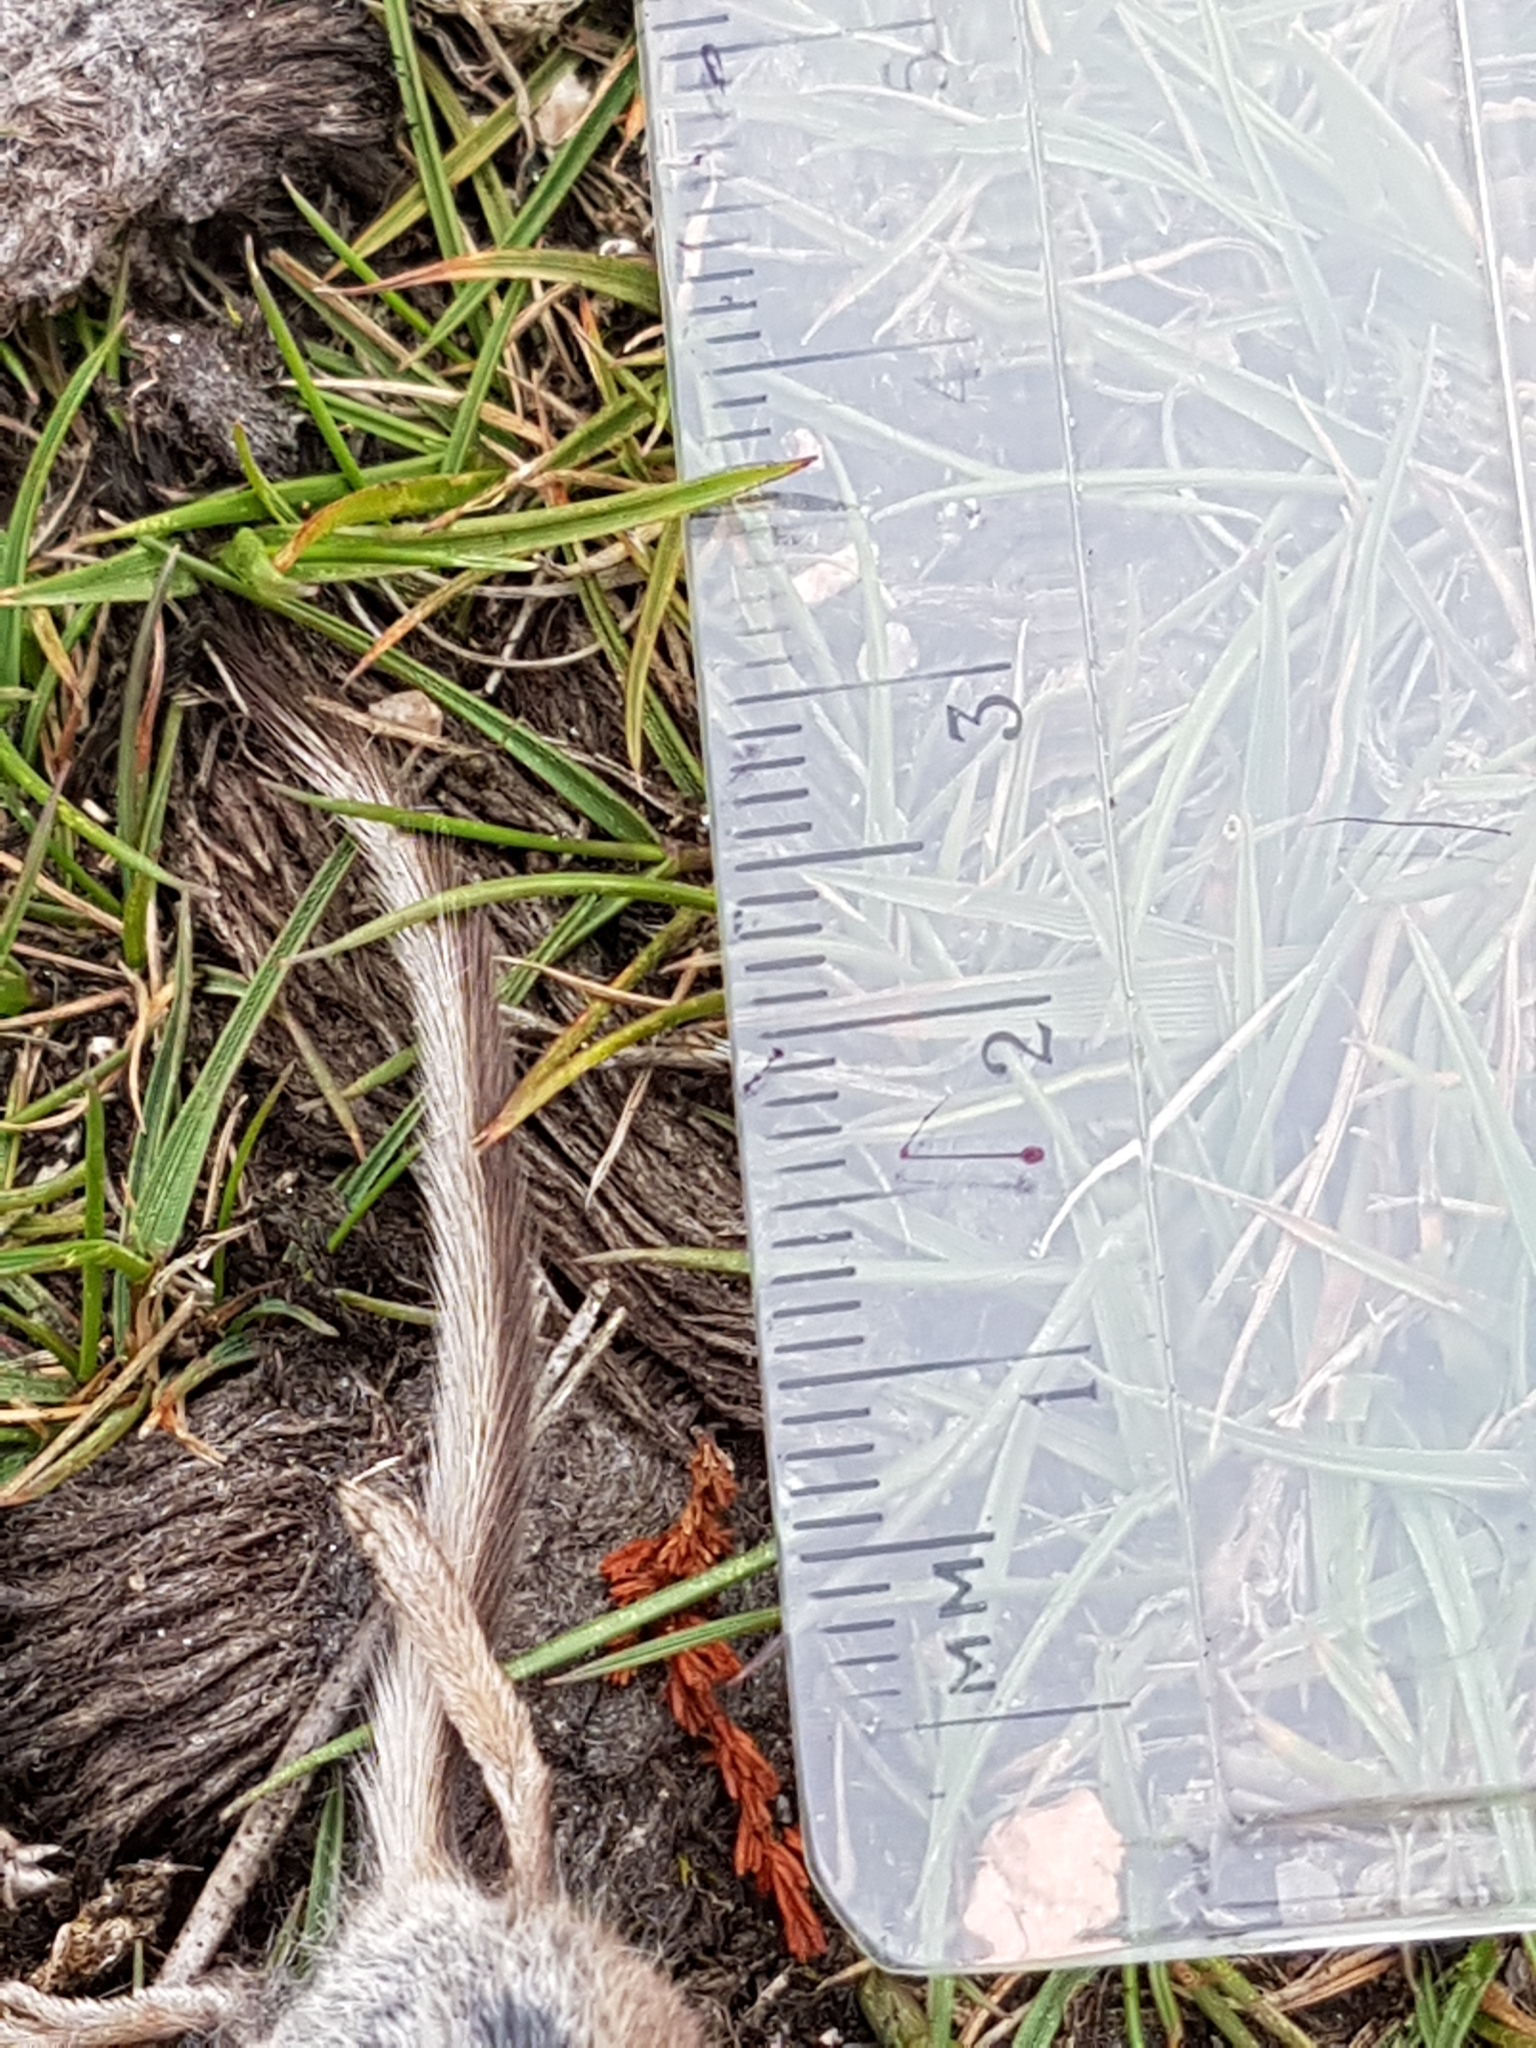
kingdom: Animalia
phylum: Chordata
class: Mammalia
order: Soricomorpha
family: Soricidae
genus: Sorex
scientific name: Sorex minutus
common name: Eurasian pygmy shrew
